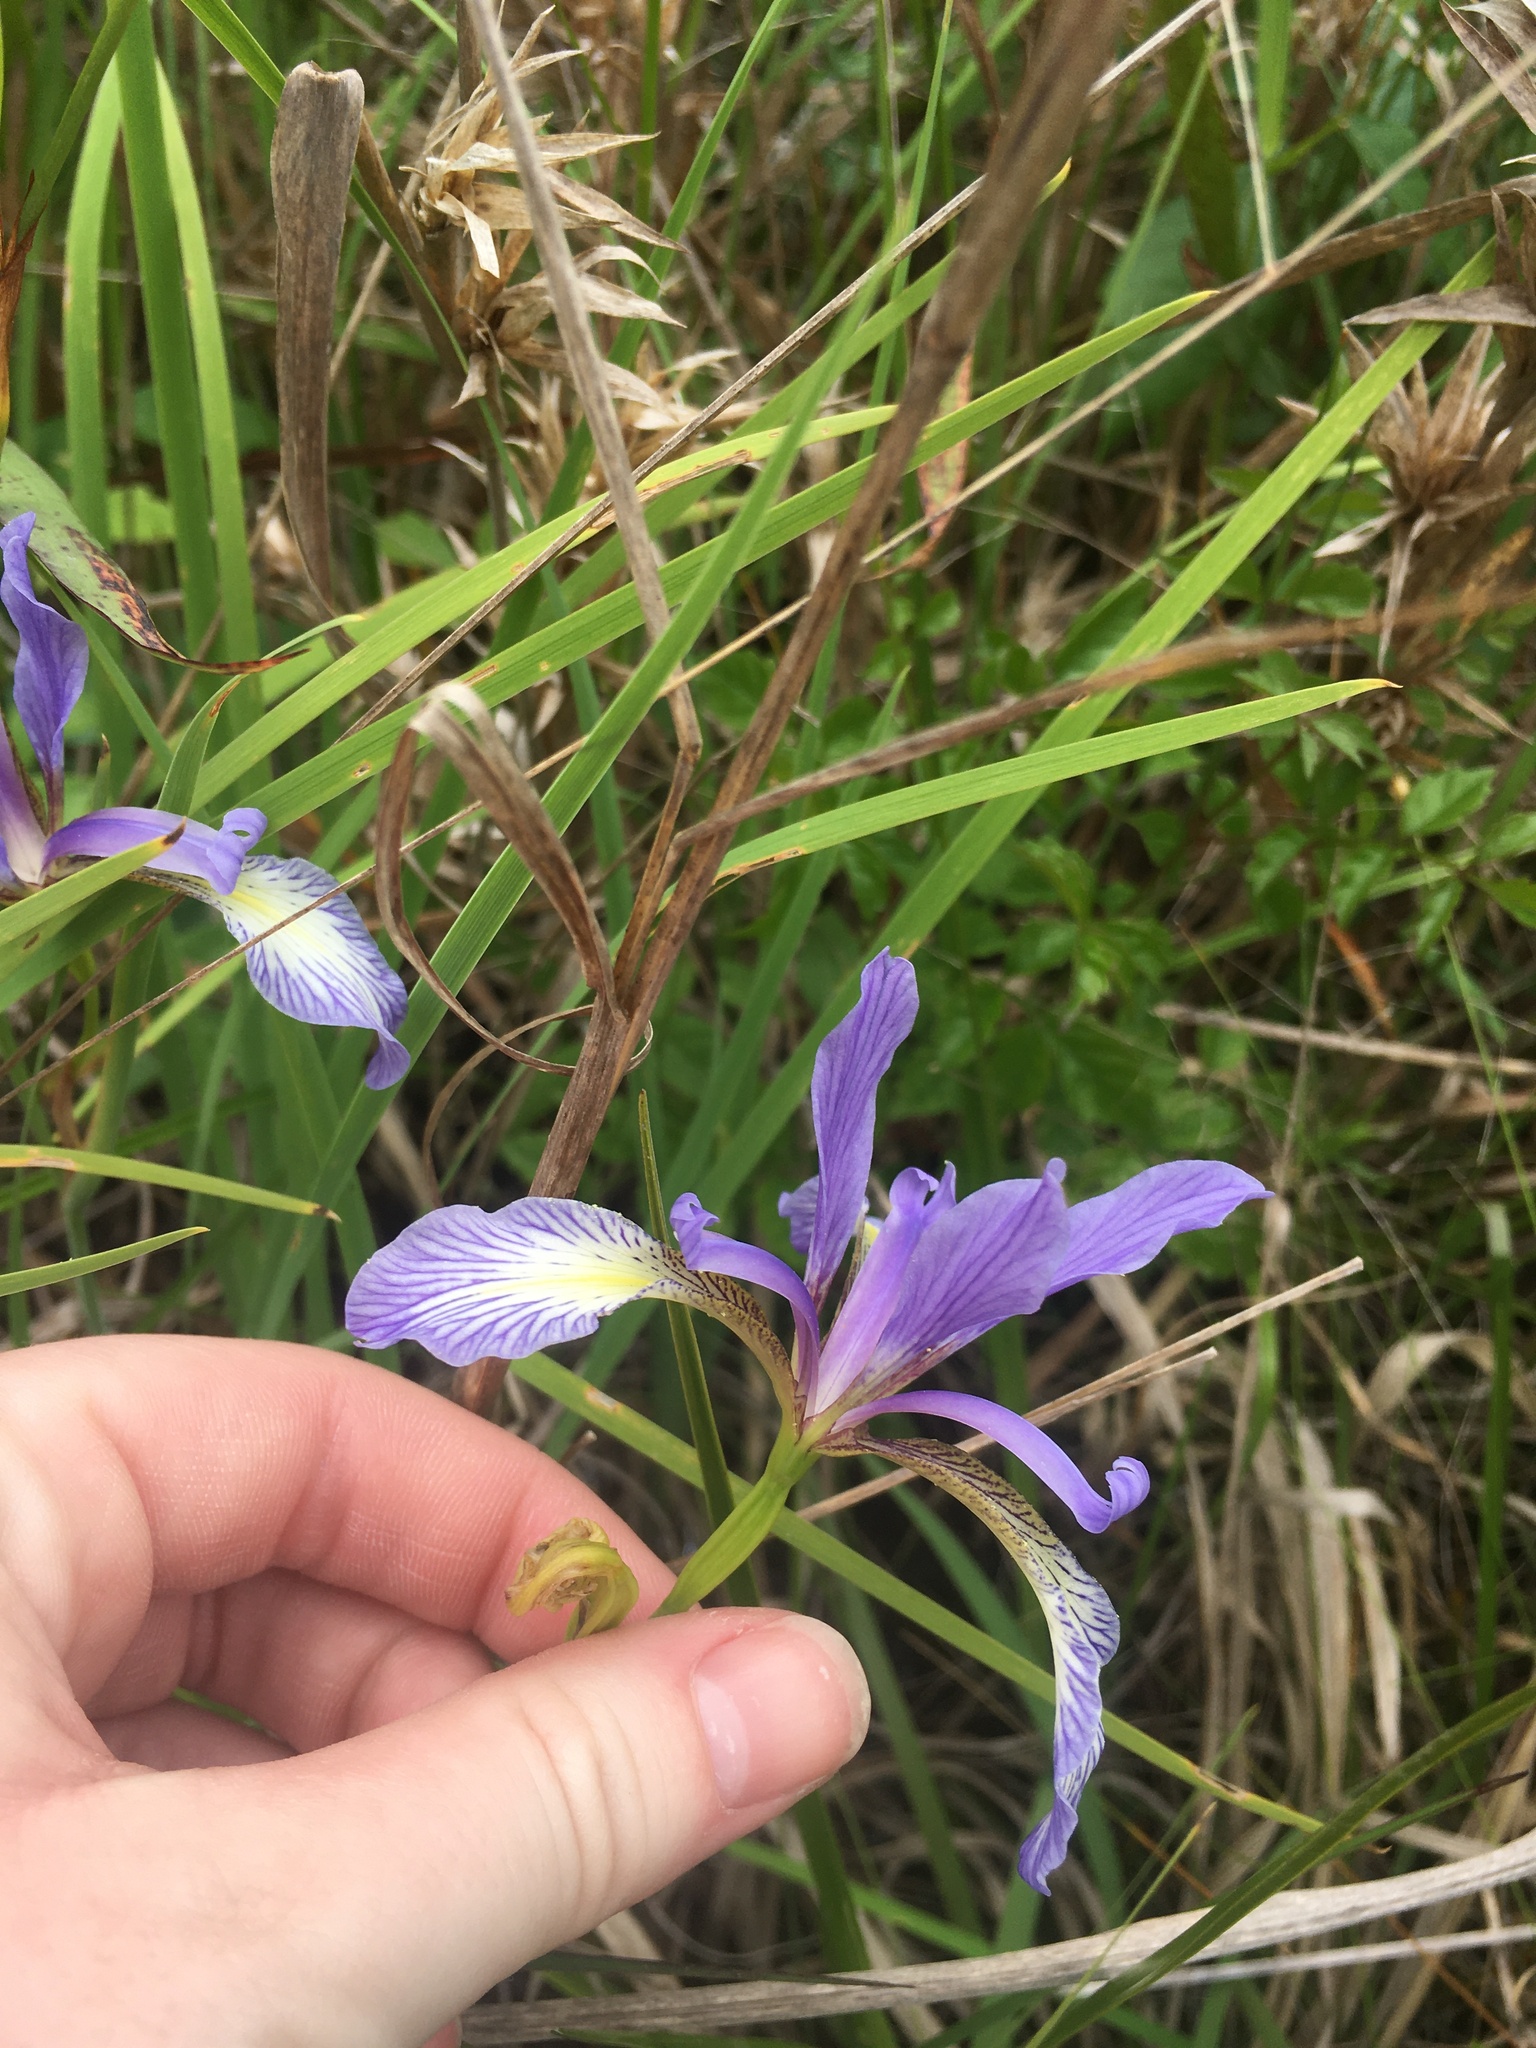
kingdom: Plantae
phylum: Tracheophyta
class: Liliopsida
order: Asparagales
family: Iridaceae
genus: Iris
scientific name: Iris prismatica
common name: Slender blue flag
